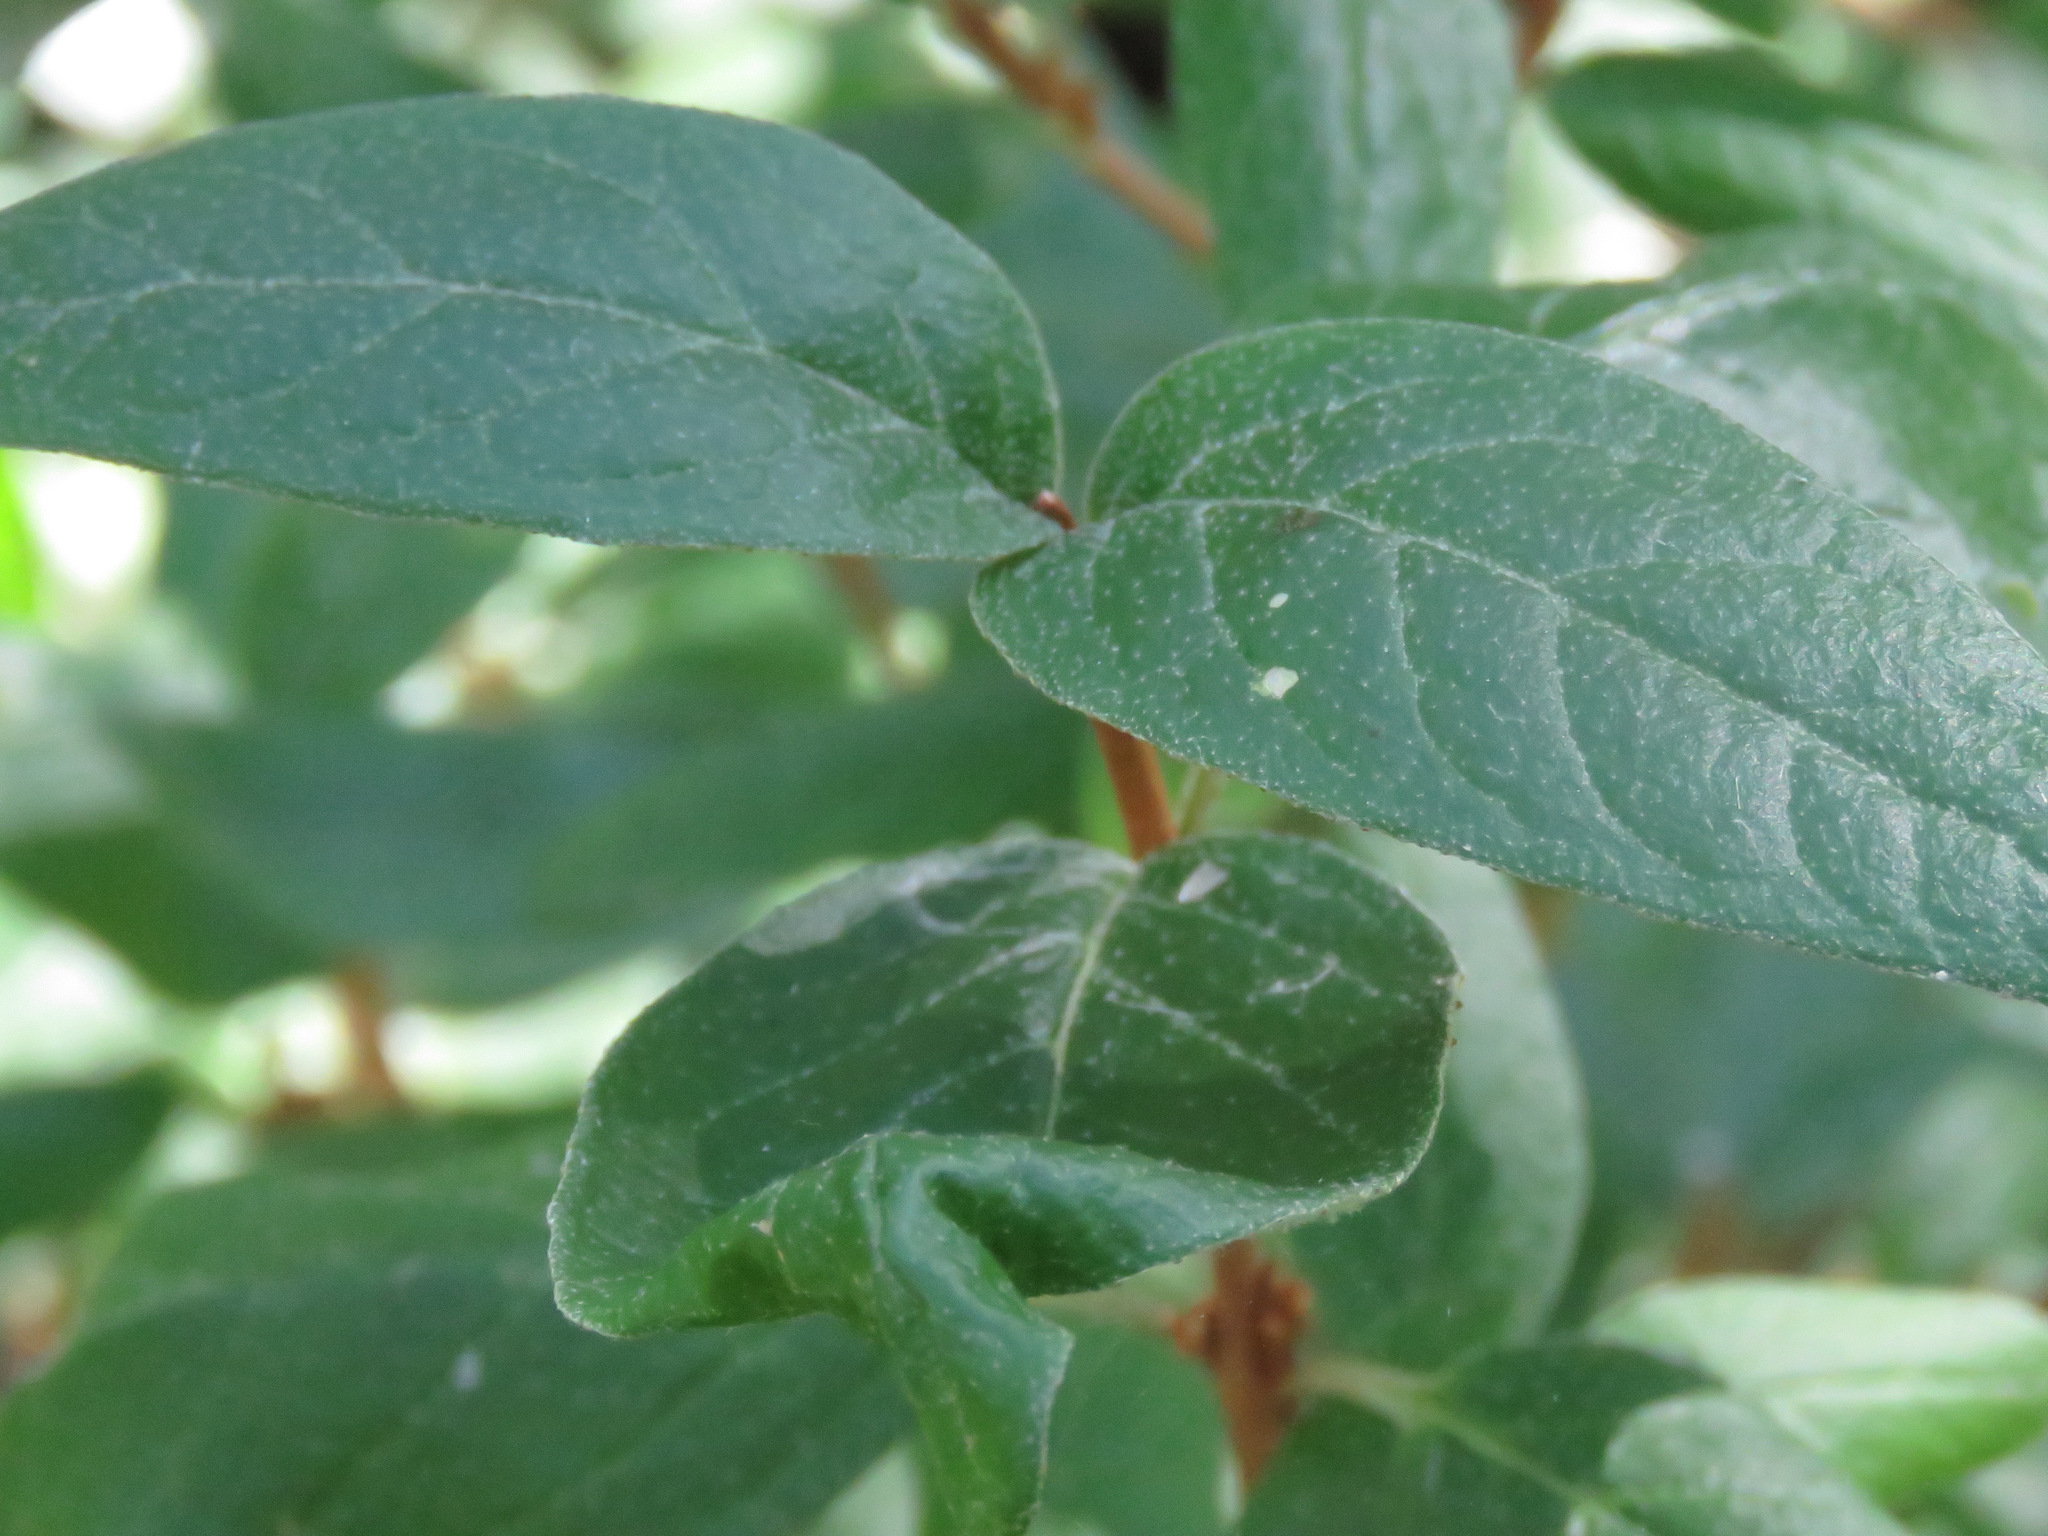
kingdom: Plantae
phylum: Tracheophyta
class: Magnoliopsida
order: Rosales
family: Elaeagnaceae
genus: Shepherdia
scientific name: Shepherdia canadensis
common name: Soapberry
